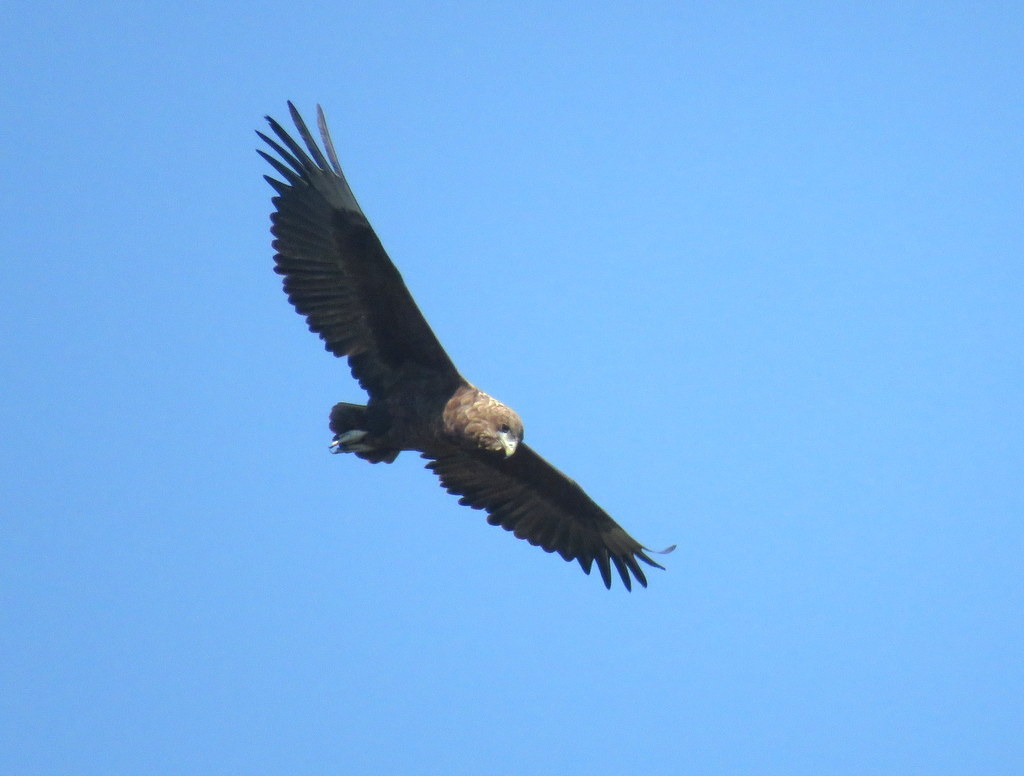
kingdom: Animalia
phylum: Chordata
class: Aves
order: Accipitriformes
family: Accipitridae
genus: Terathopius
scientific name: Terathopius ecaudatus
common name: Bateleur
